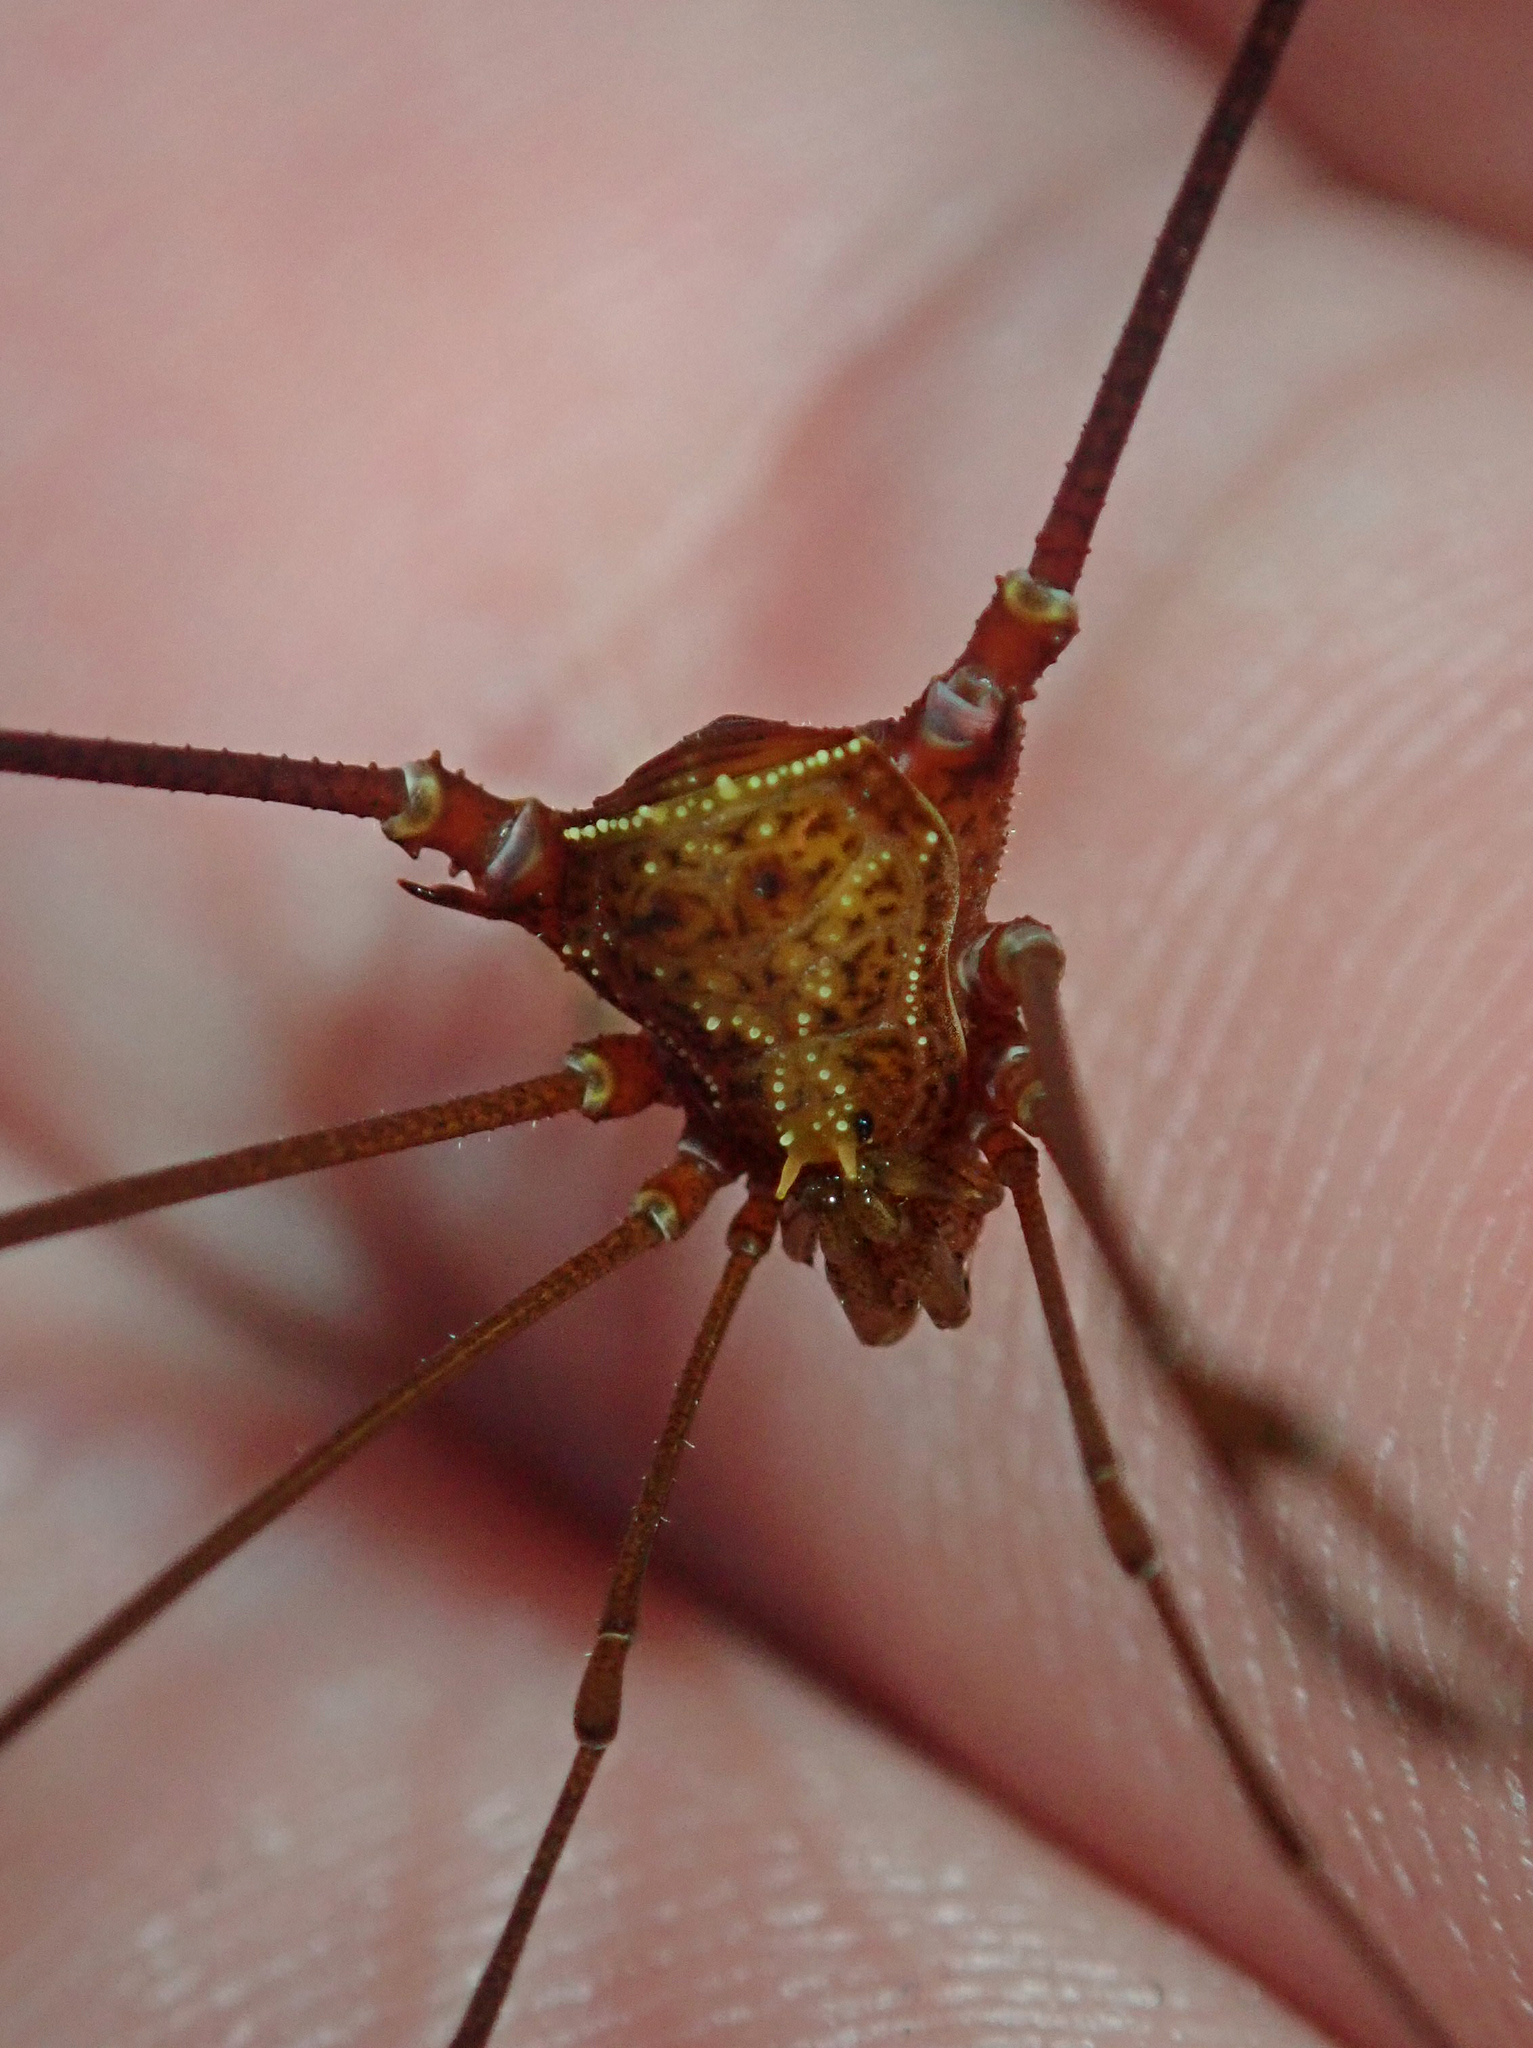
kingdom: Animalia
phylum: Arthropoda
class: Arachnida
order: Opiliones
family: Gonyleptidae
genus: Promitobates
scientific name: Promitobates difficilis
